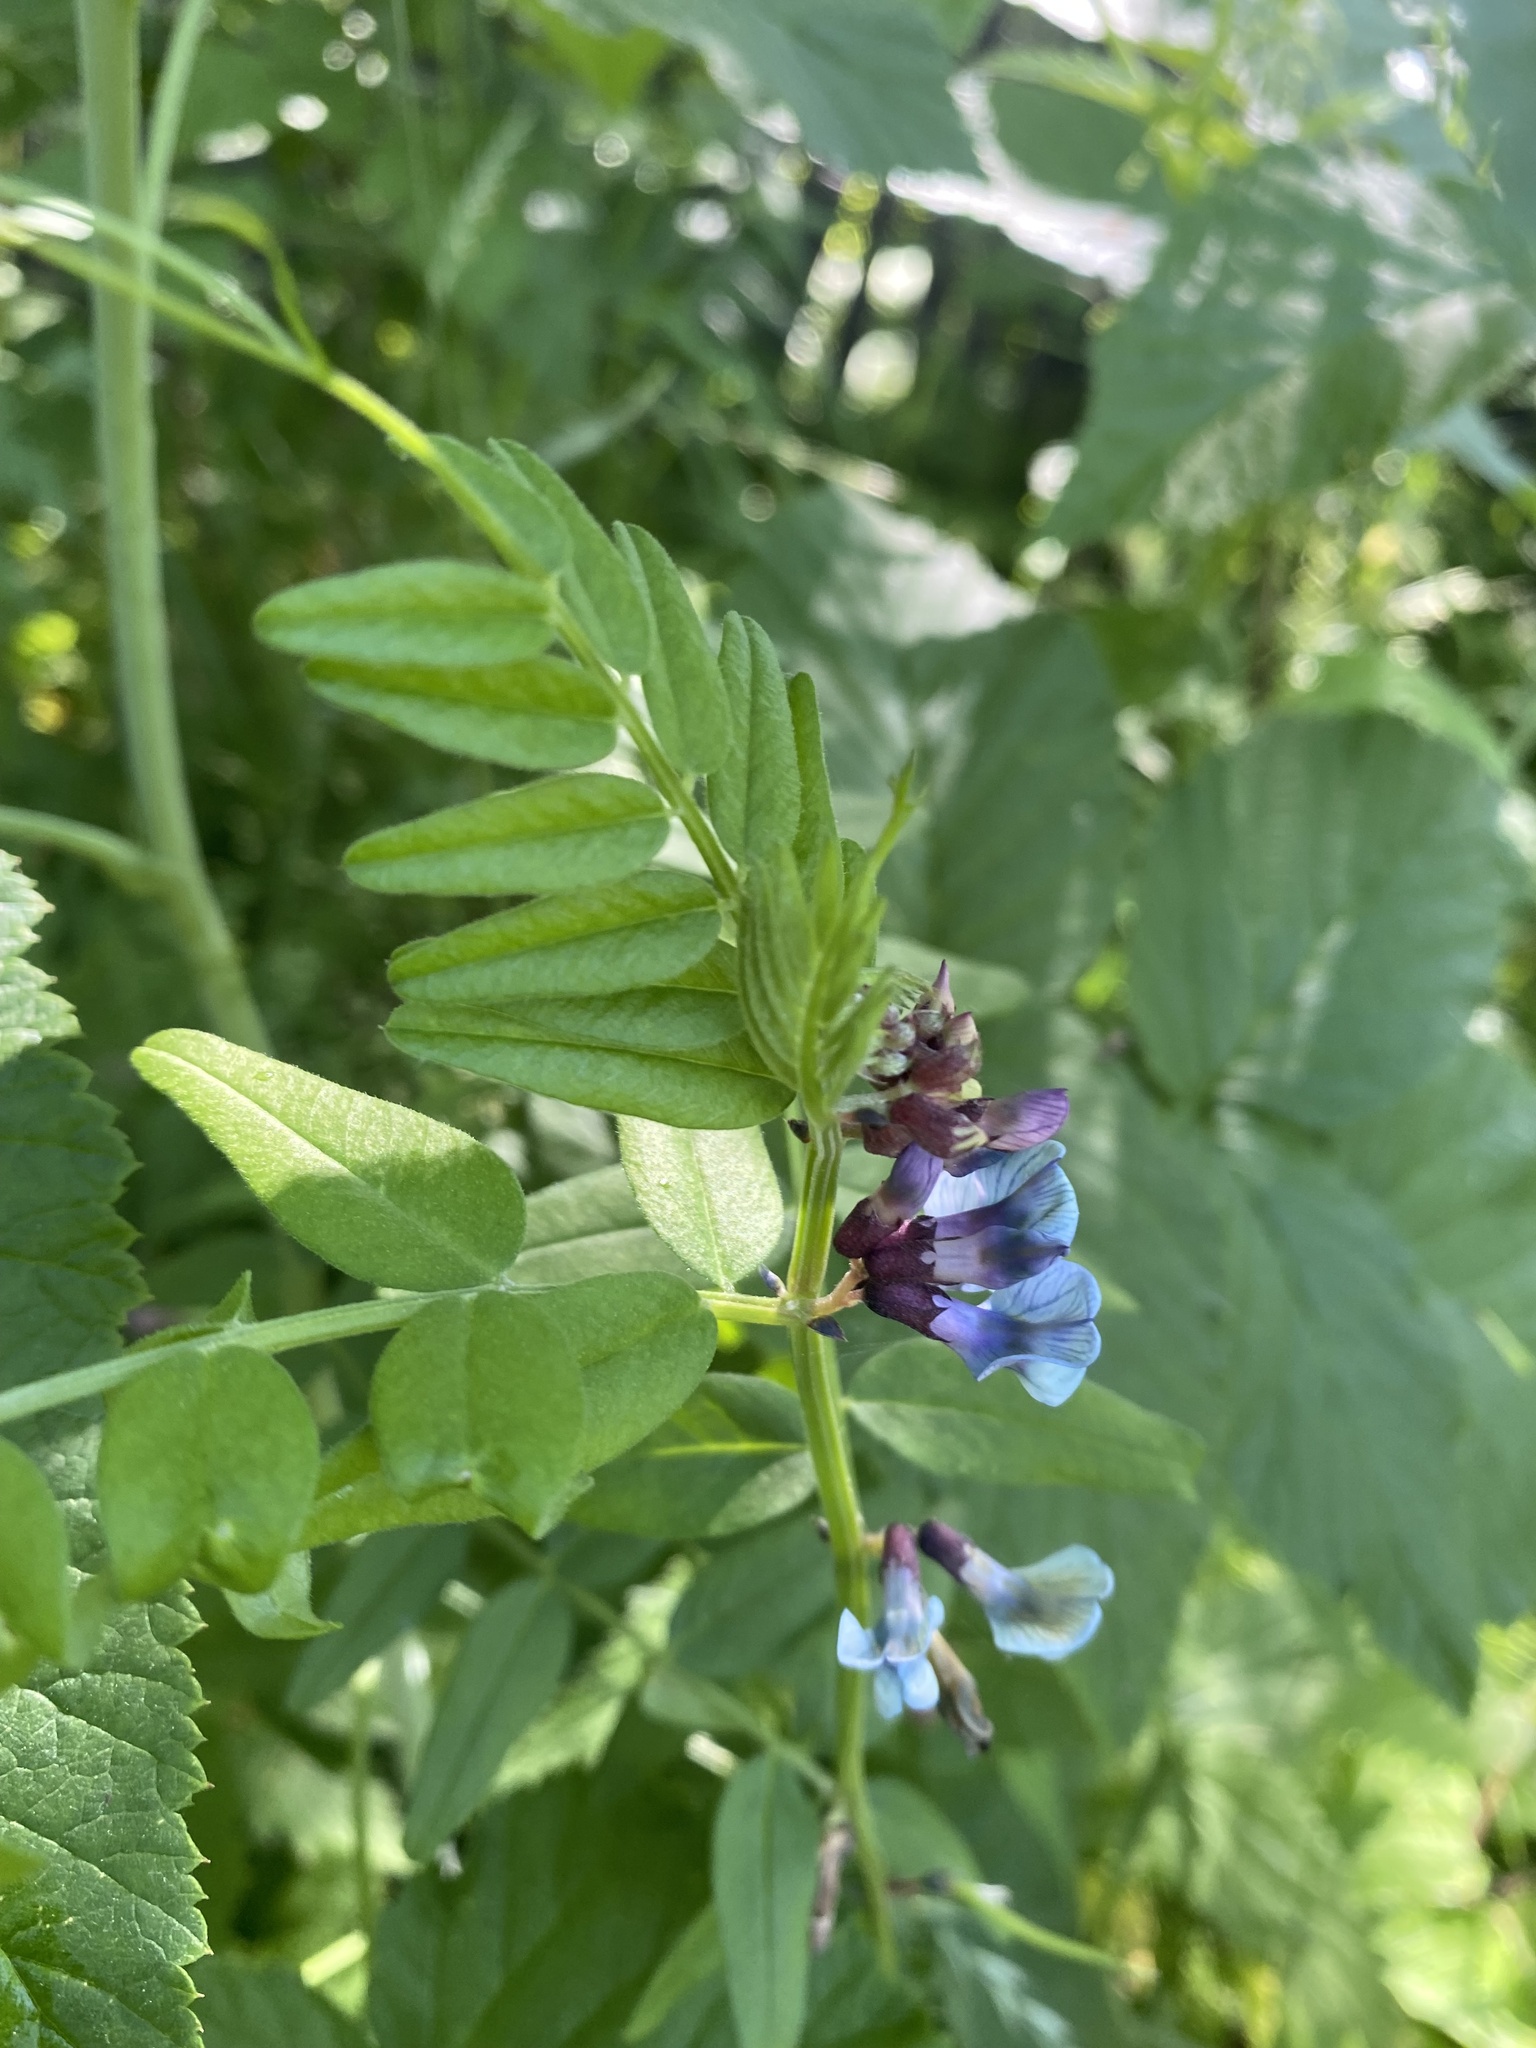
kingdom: Plantae
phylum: Tracheophyta
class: Magnoliopsida
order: Fabales
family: Fabaceae
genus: Vicia
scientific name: Vicia sepium
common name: Bush vetch
